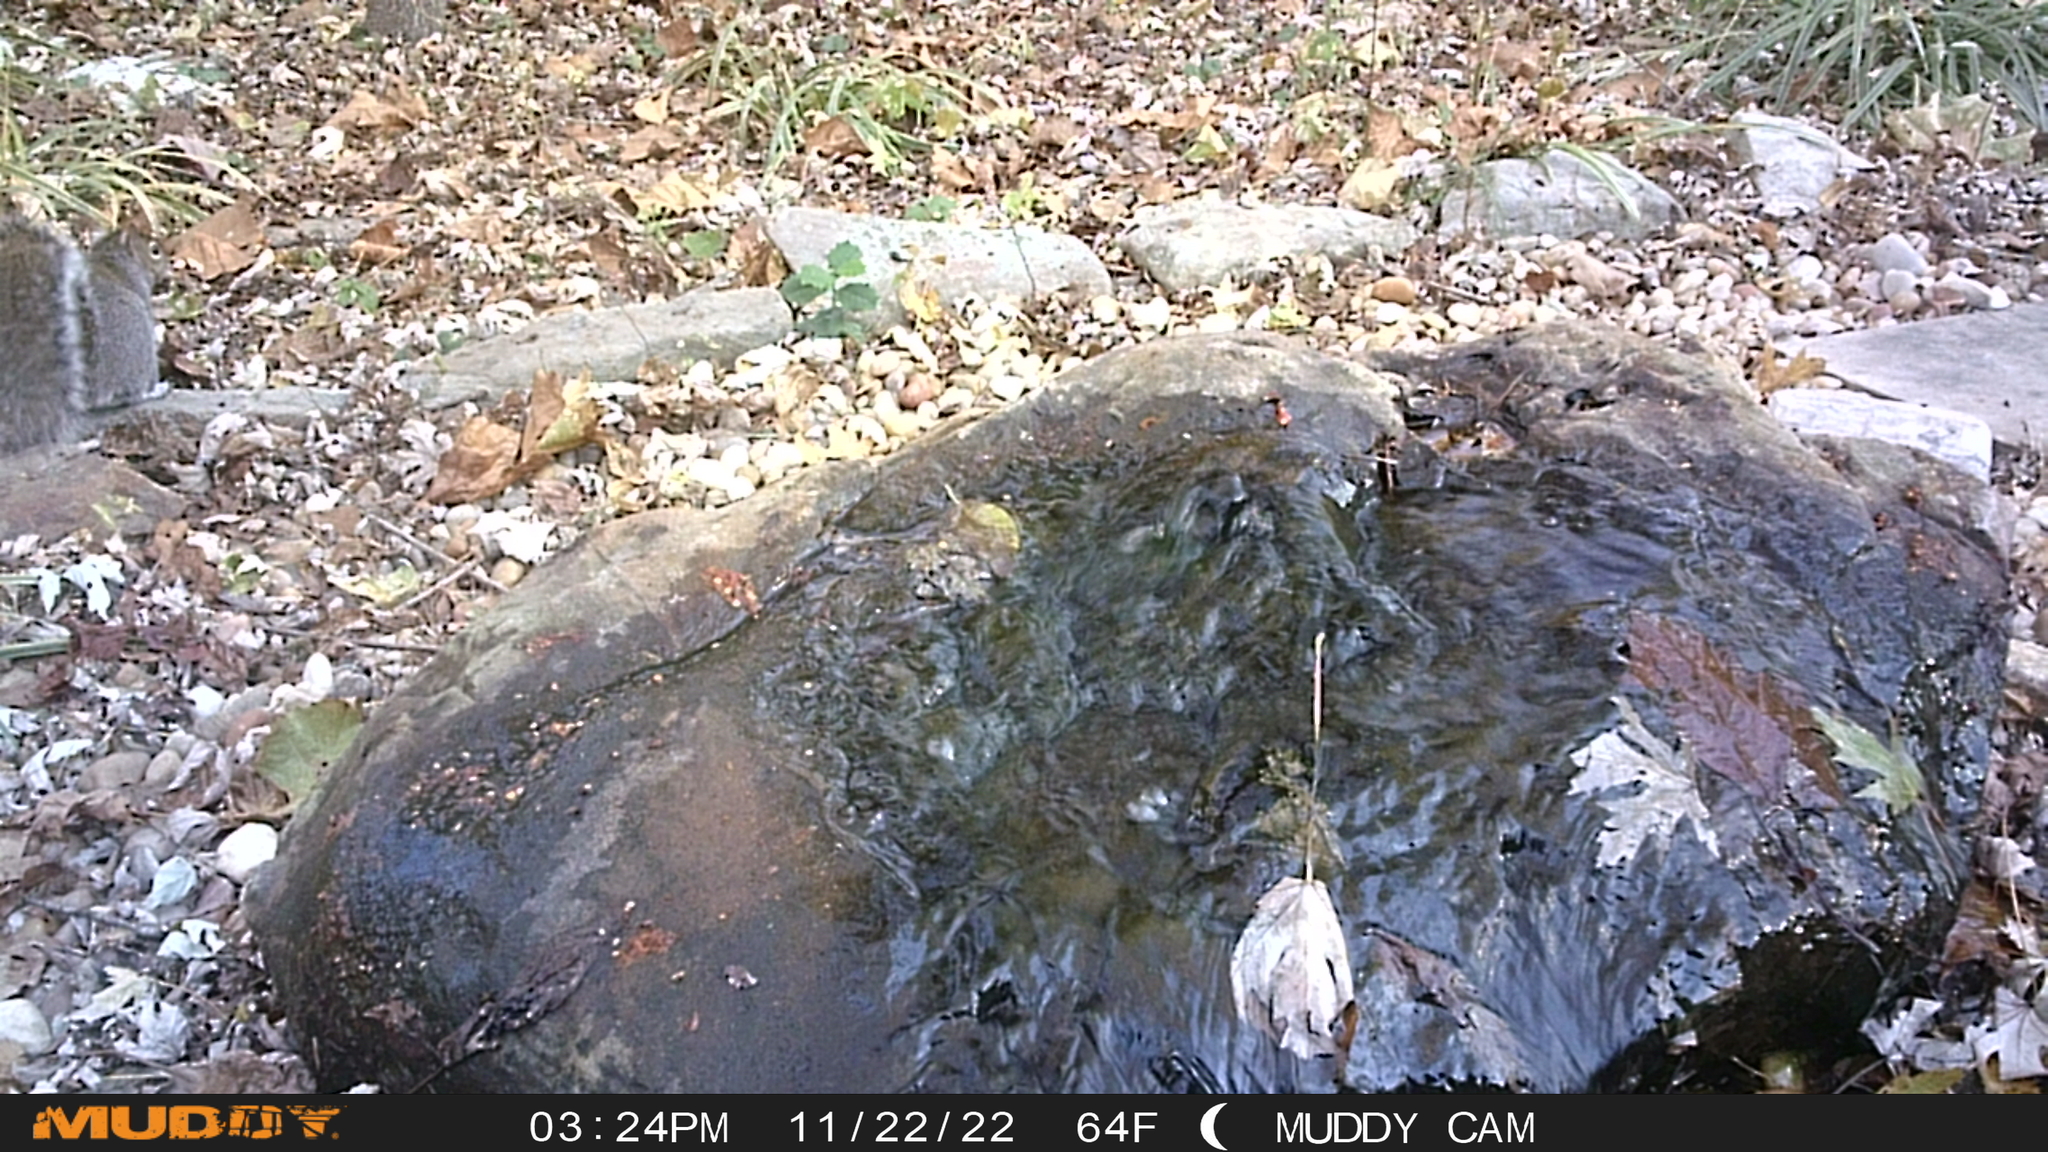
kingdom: Animalia
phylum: Chordata
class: Mammalia
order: Rodentia
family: Sciuridae
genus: Sciurus
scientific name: Sciurus carolinensis
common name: Eastern gray squirrel
